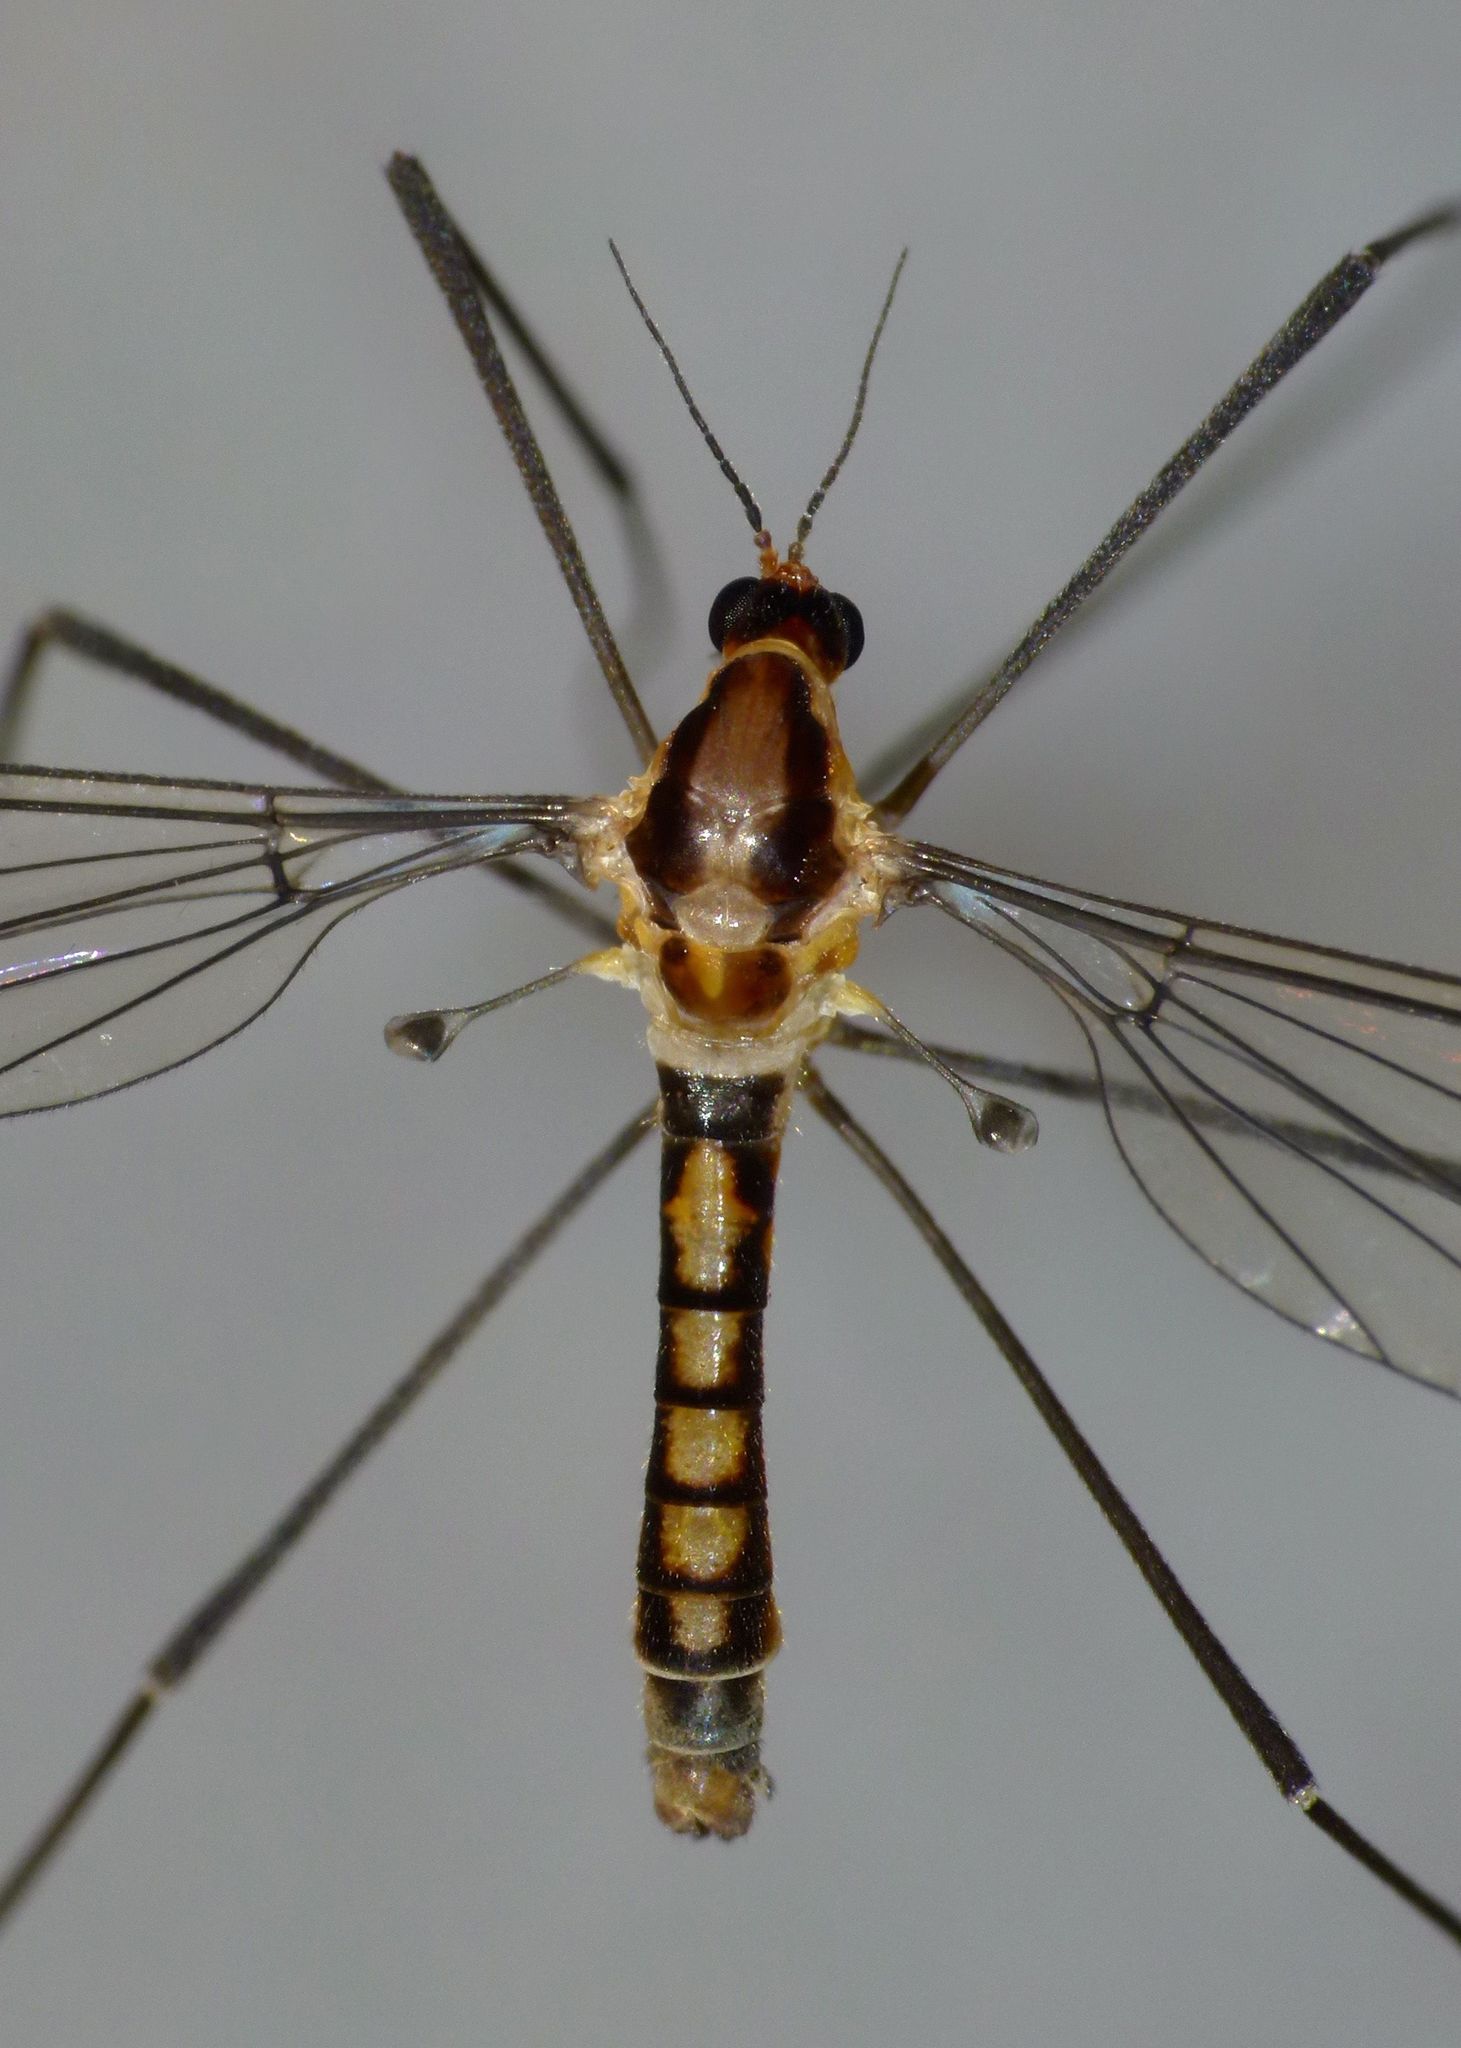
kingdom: Animalia
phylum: Arthropoda
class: Insecta
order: Diptera
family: Tipulidae
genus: Leptotarsus
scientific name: Leptotarsus subtener
